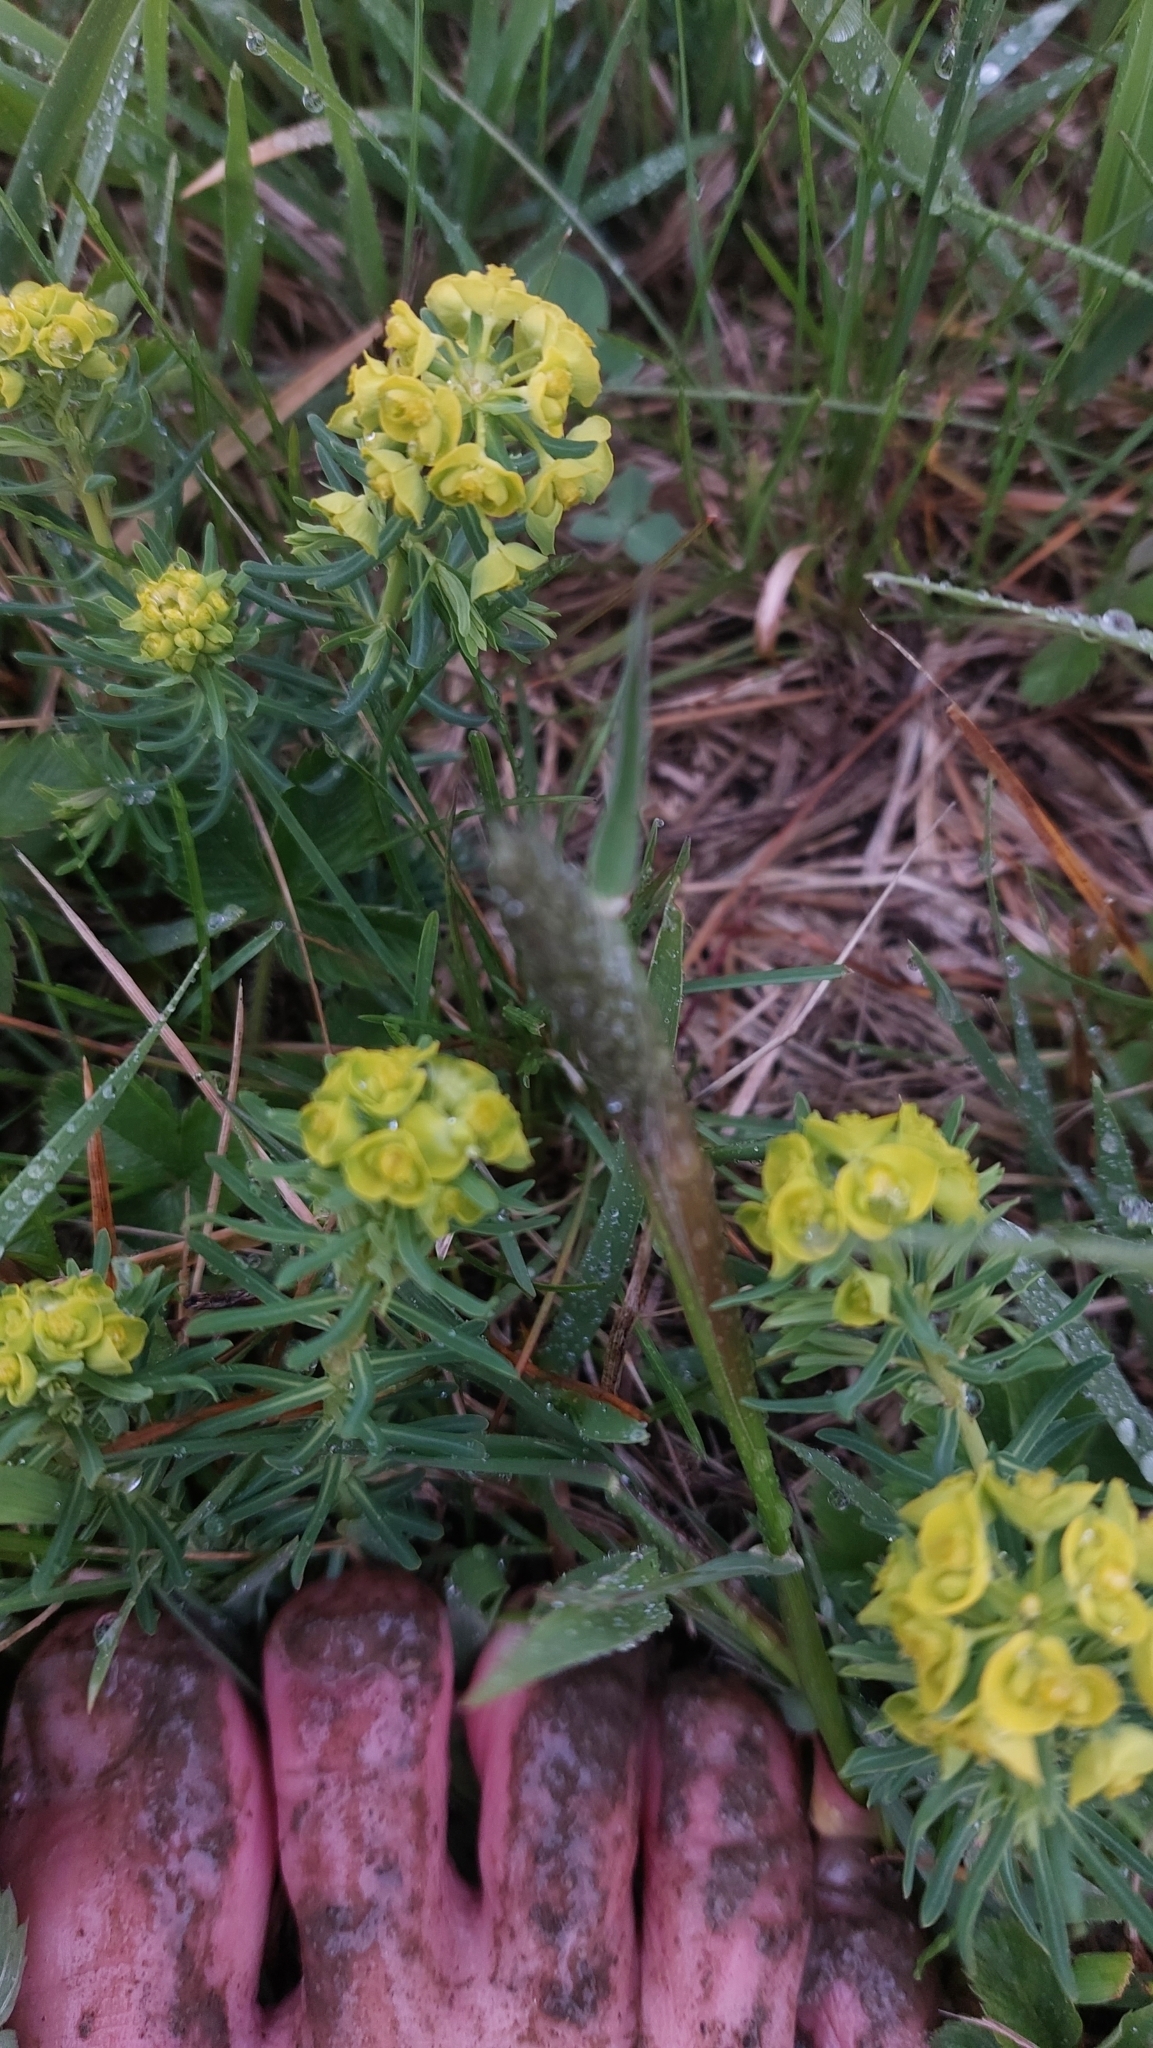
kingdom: Plantae
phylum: Tracheophyta
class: Magnoliopsida
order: Malpighiales
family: Euphorbiaceae
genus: Euphorbia
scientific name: Euphorbia cyparissias
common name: Cypress spurge
